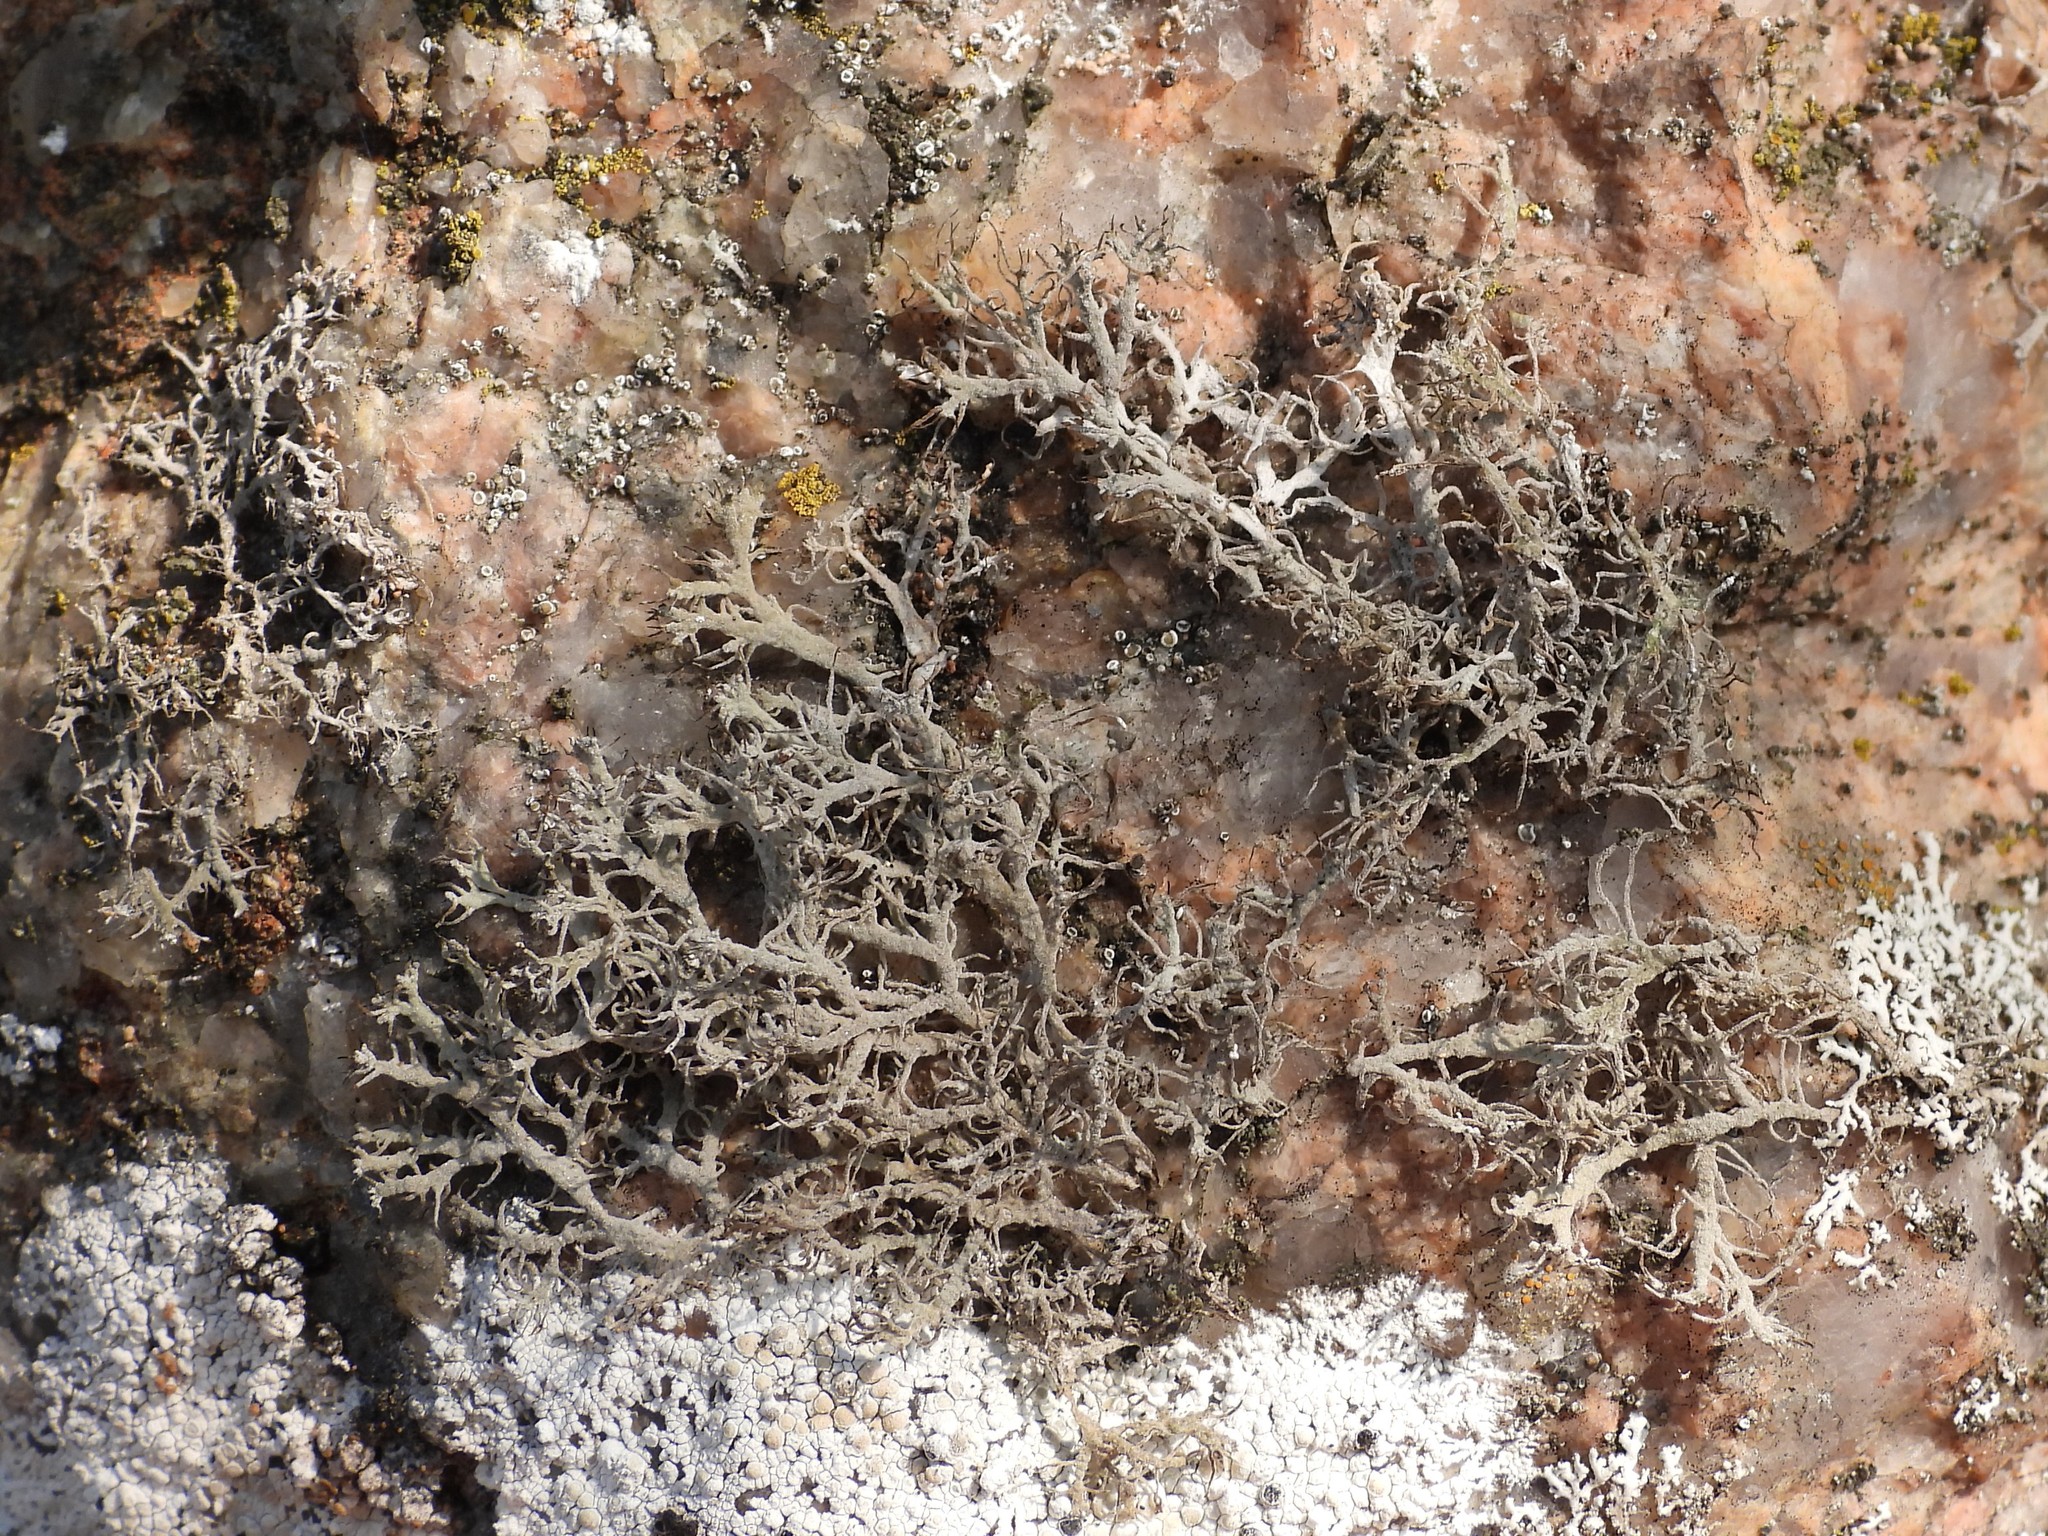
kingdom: Fungi
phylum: Ascomycota
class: Lecanoromycetes
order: Caliciales
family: Physciaceae
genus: Anaptychia
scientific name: Anaptychia ciliaris
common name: Great ciliated lichen
